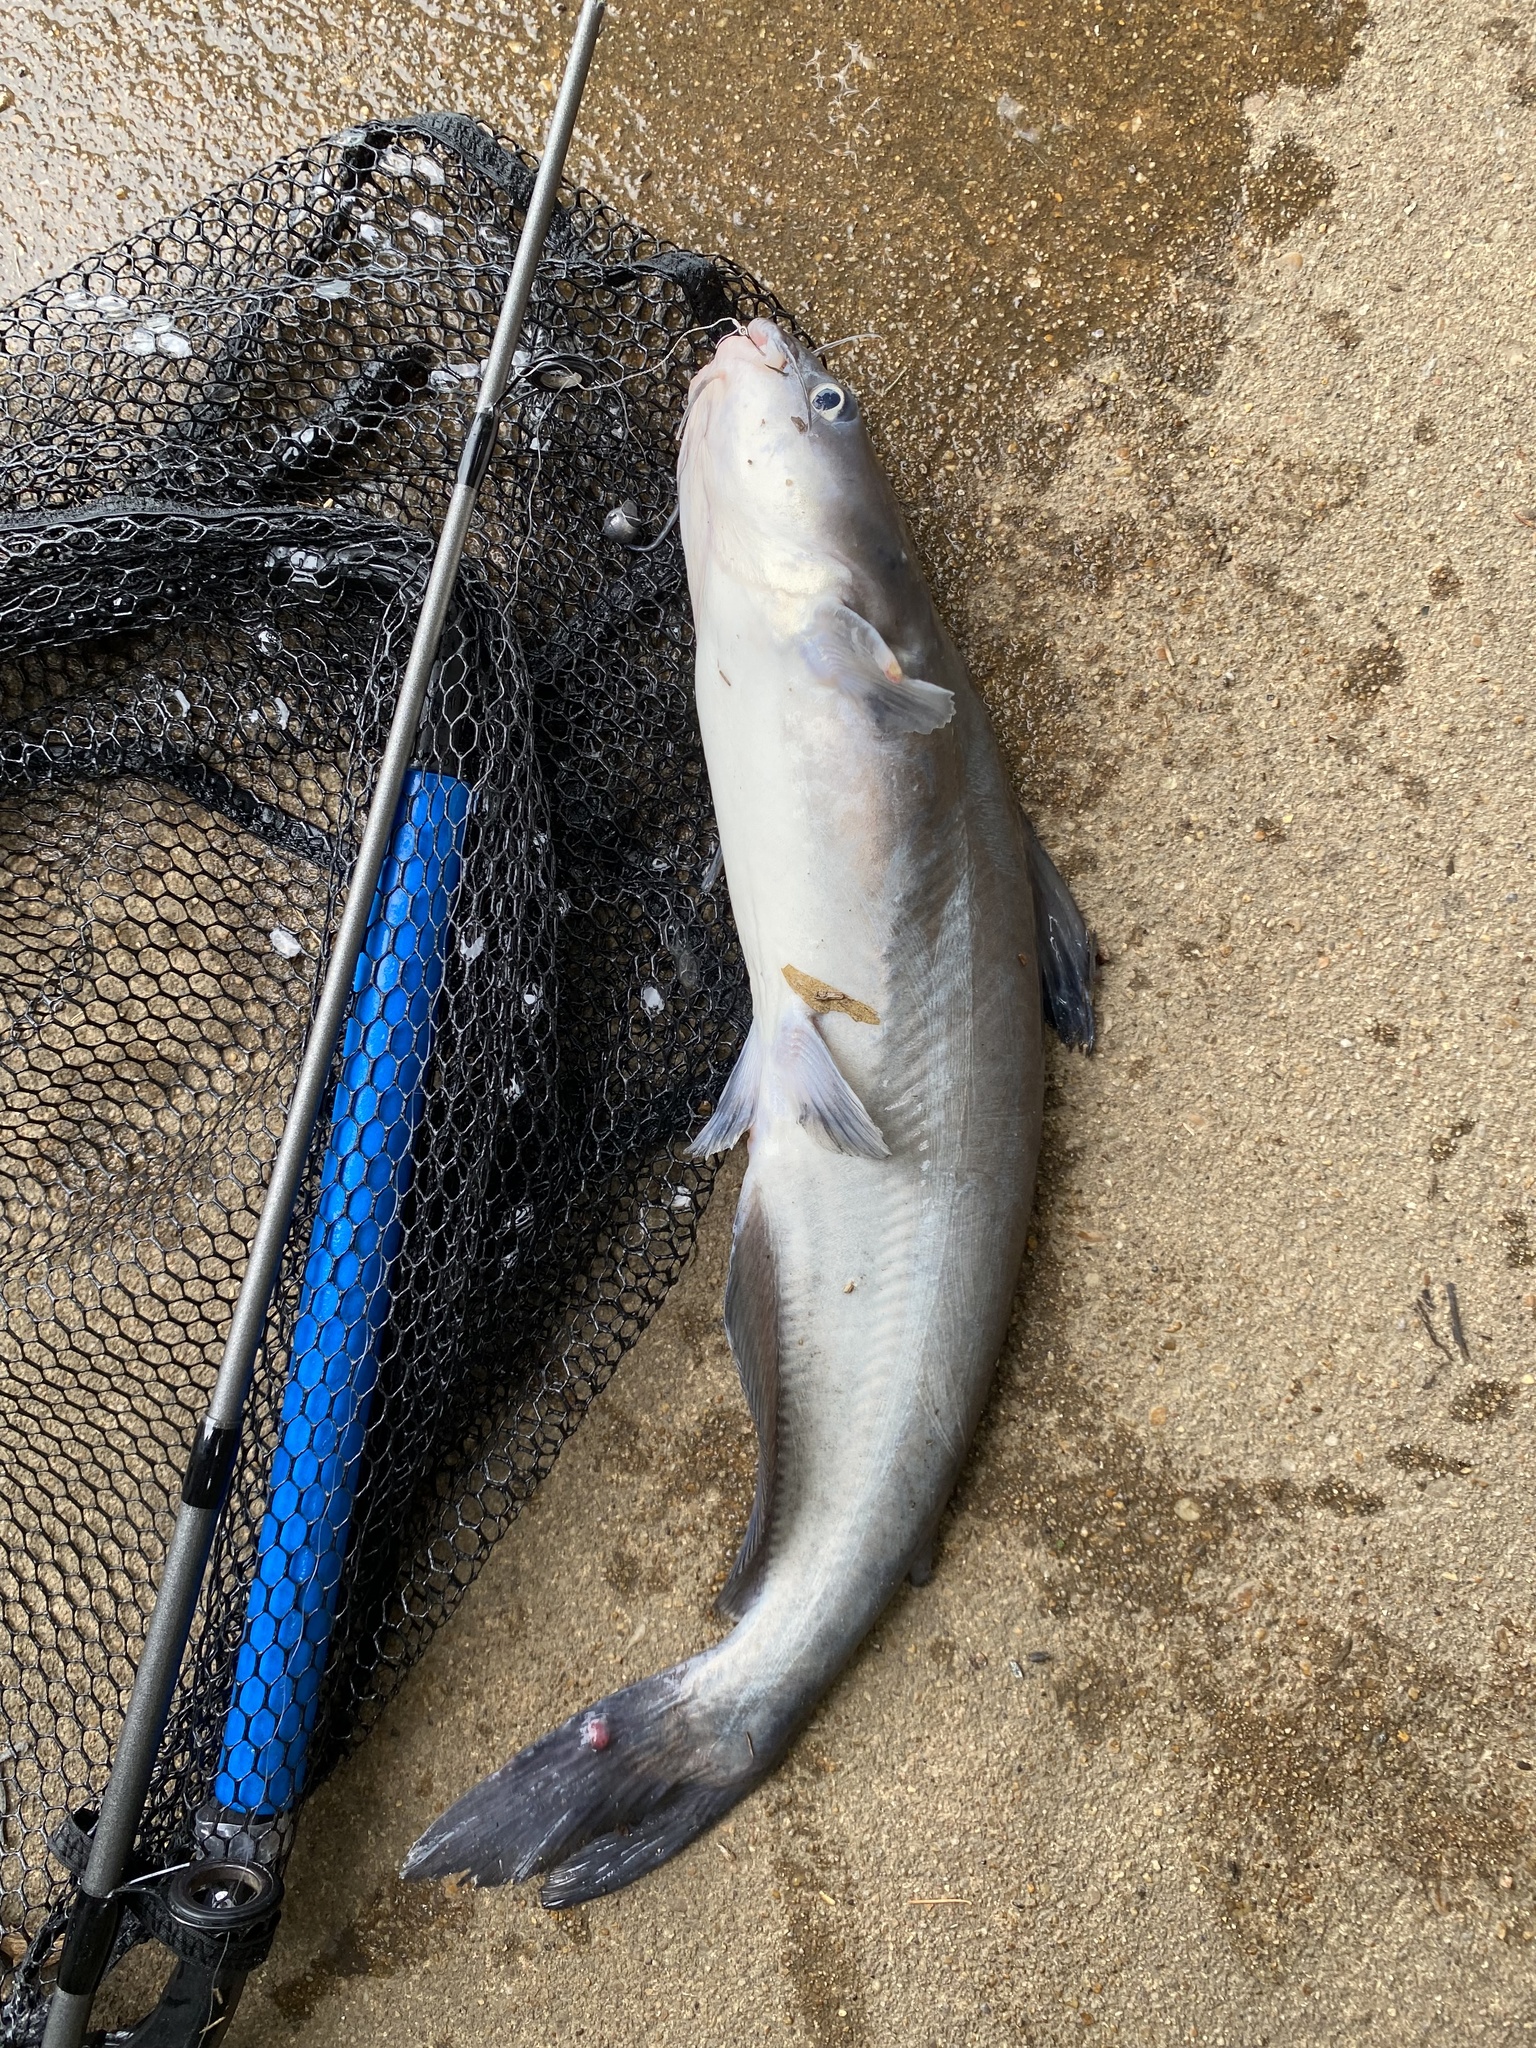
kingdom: Animalia
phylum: Chordata
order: Siluriformes
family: Ictaluridae
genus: Ictalurus
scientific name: Ictalurus furcatus
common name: Blue catfish
